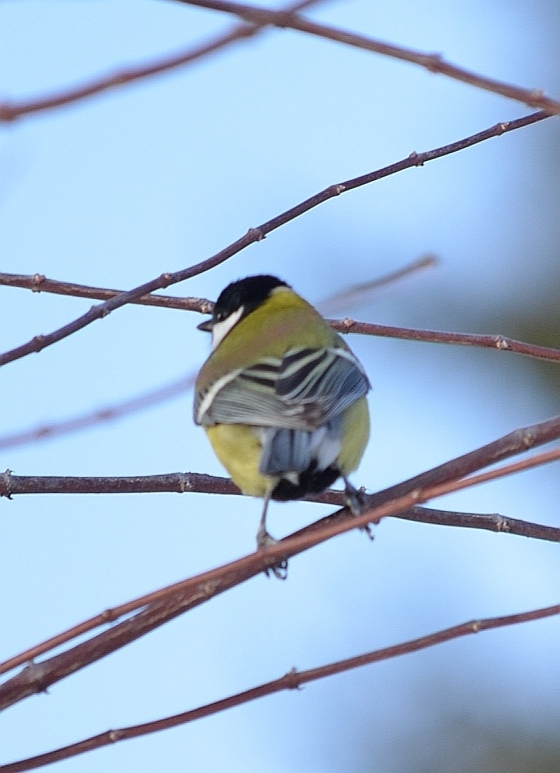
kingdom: Animalia
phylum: Chordata
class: Aves
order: Passeriformes
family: Paridae
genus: Parus
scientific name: Parus major
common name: Great tit
